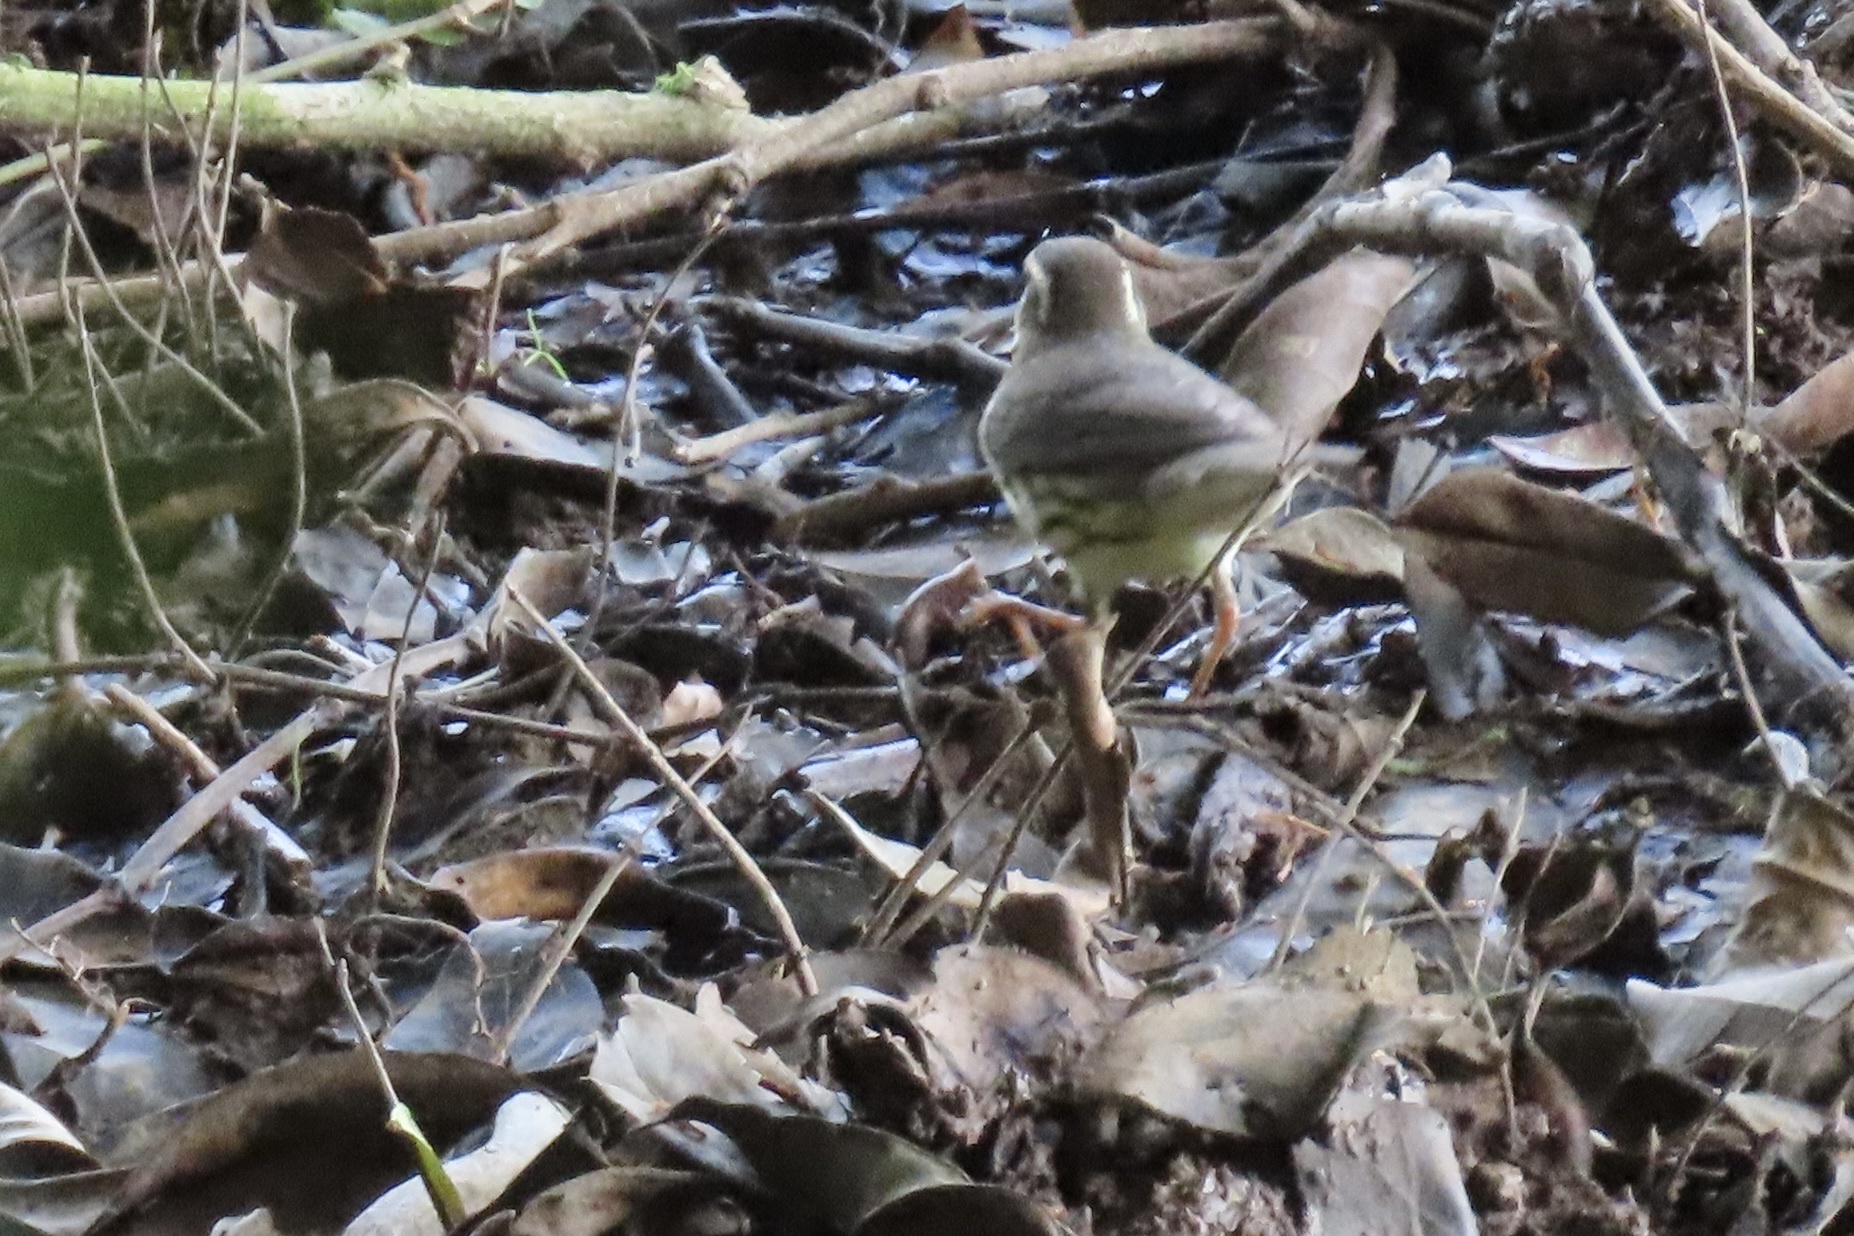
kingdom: Animalia
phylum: Chordata
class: Aves
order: Passeriformes
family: Parulidae
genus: Parkesia
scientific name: Parkesia noveboracensis
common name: Northern waterthrush
